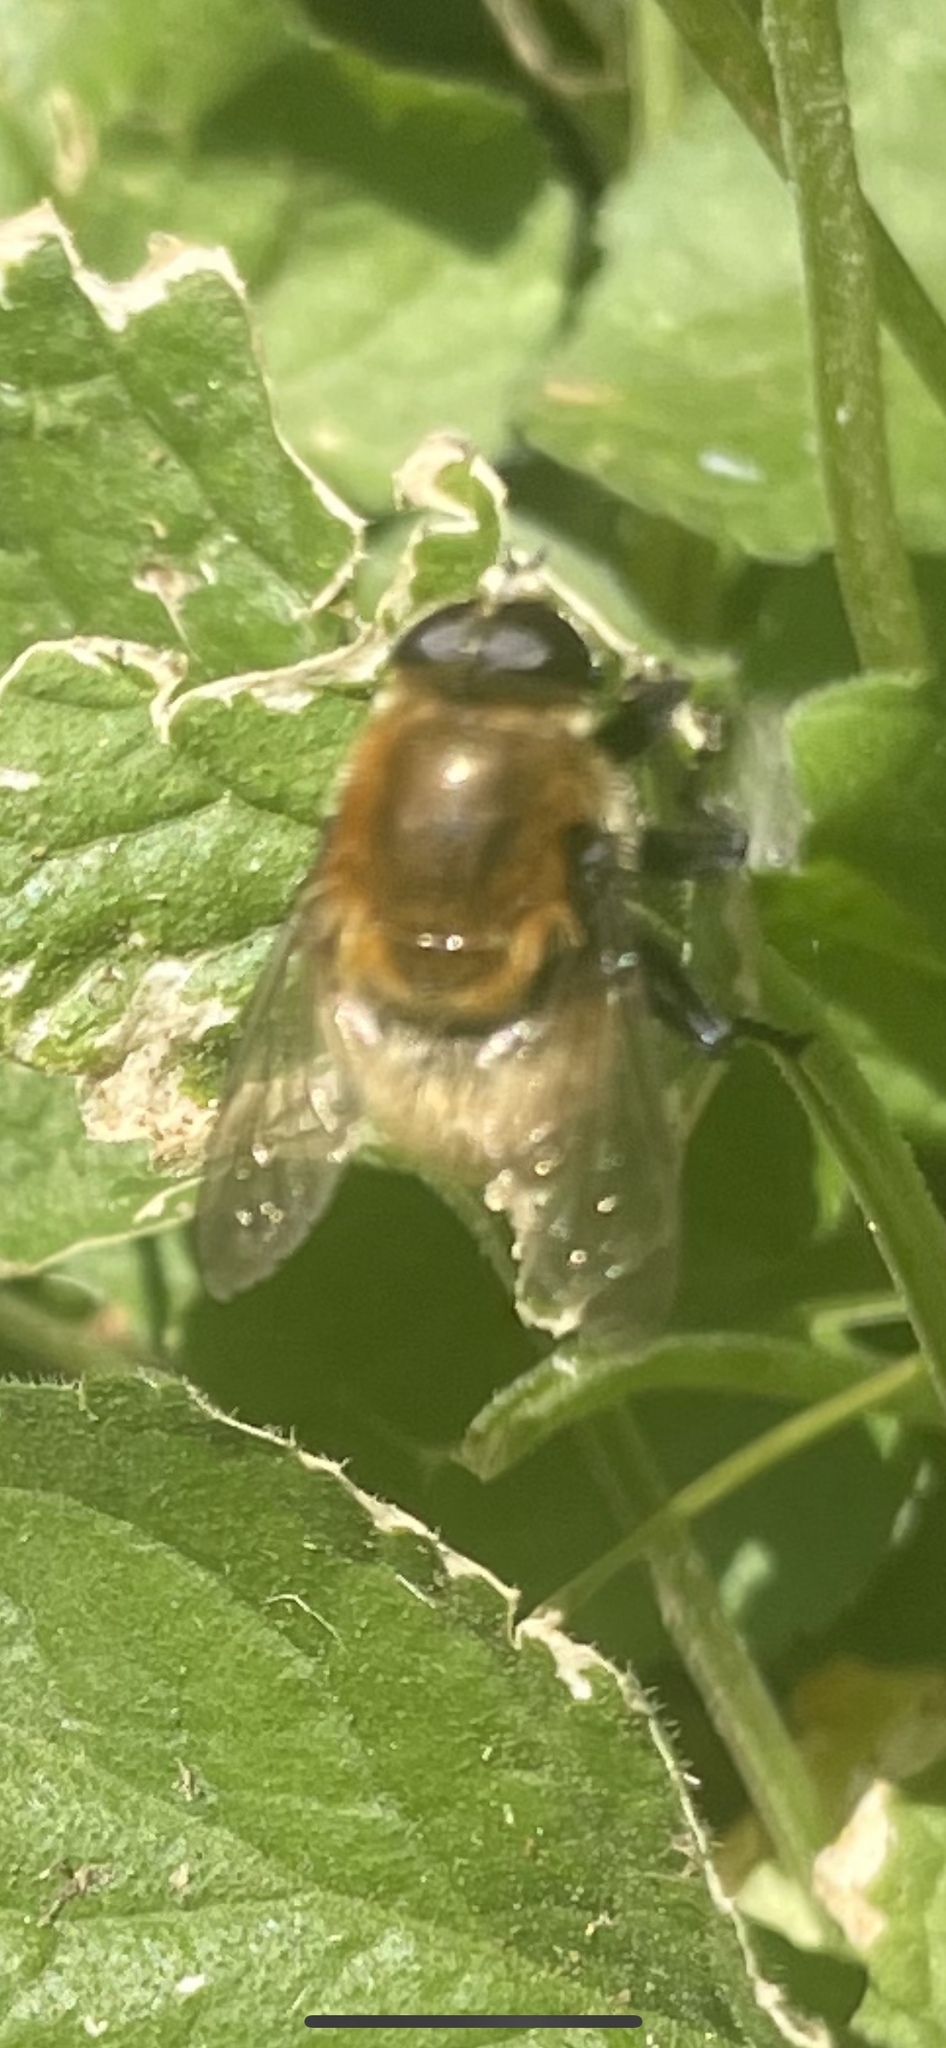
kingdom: Animalia
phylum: Arthropoda
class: Insecta
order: Diptera
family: Syrphidae
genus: Merodon
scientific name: Merodon equestris
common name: Greater bulb-fly
